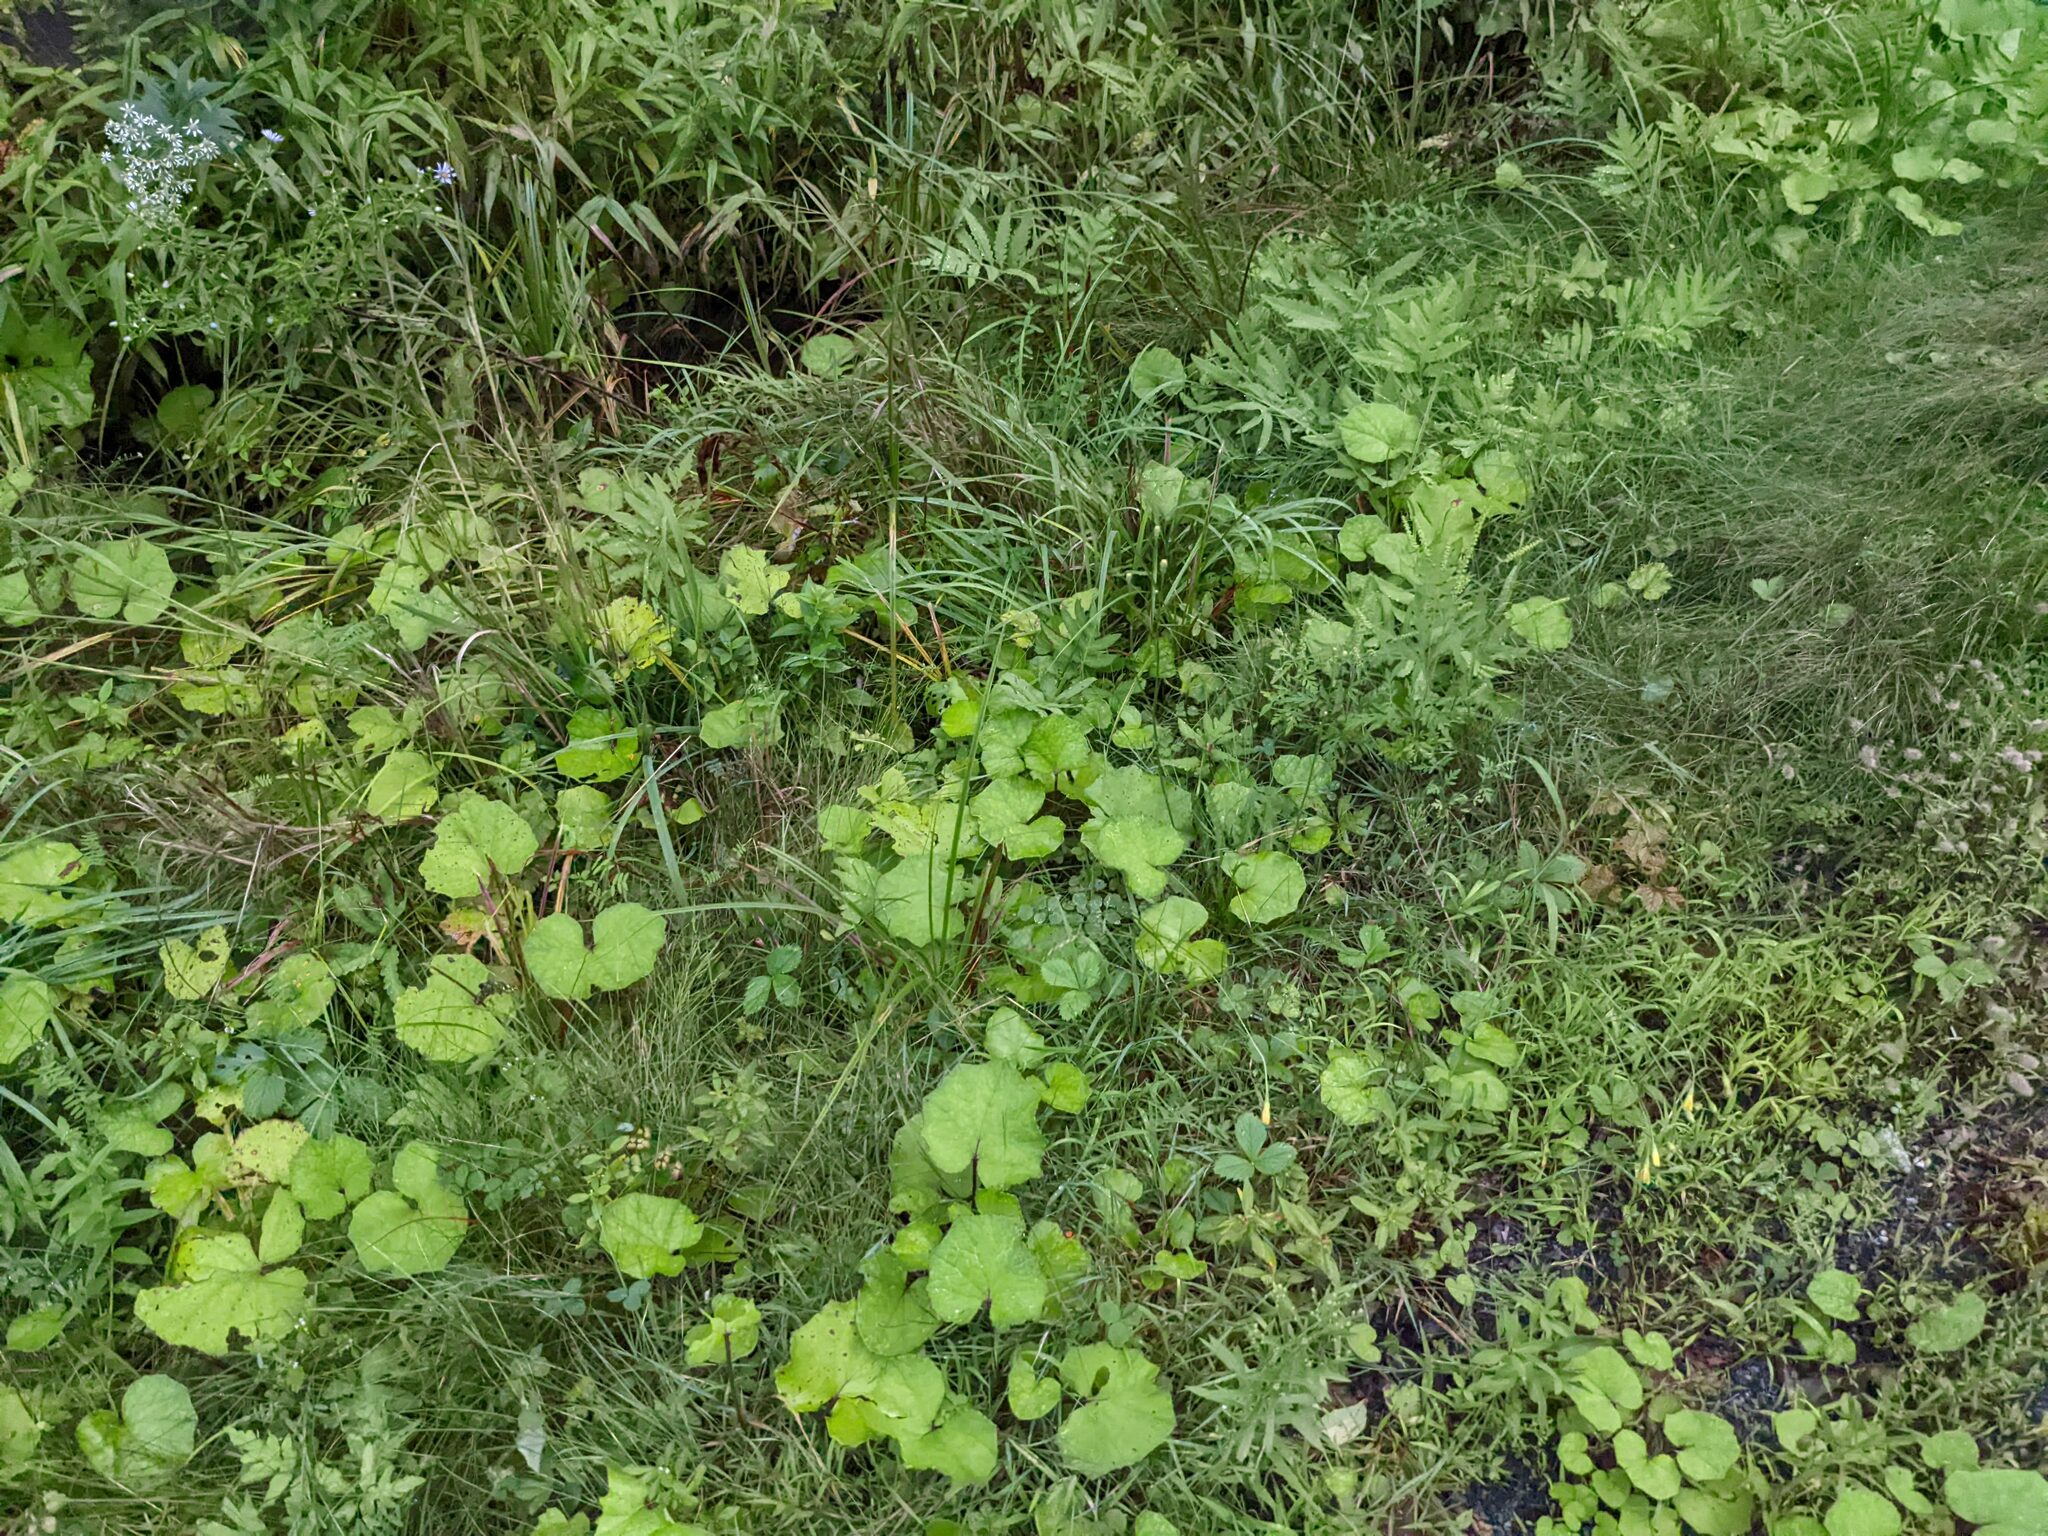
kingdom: Plantae
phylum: Tracheophyta
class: Magnoliopsida
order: Asterales
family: Asteraceae
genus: Tussilago
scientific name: Tussilago farfara
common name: Coltsfoot
